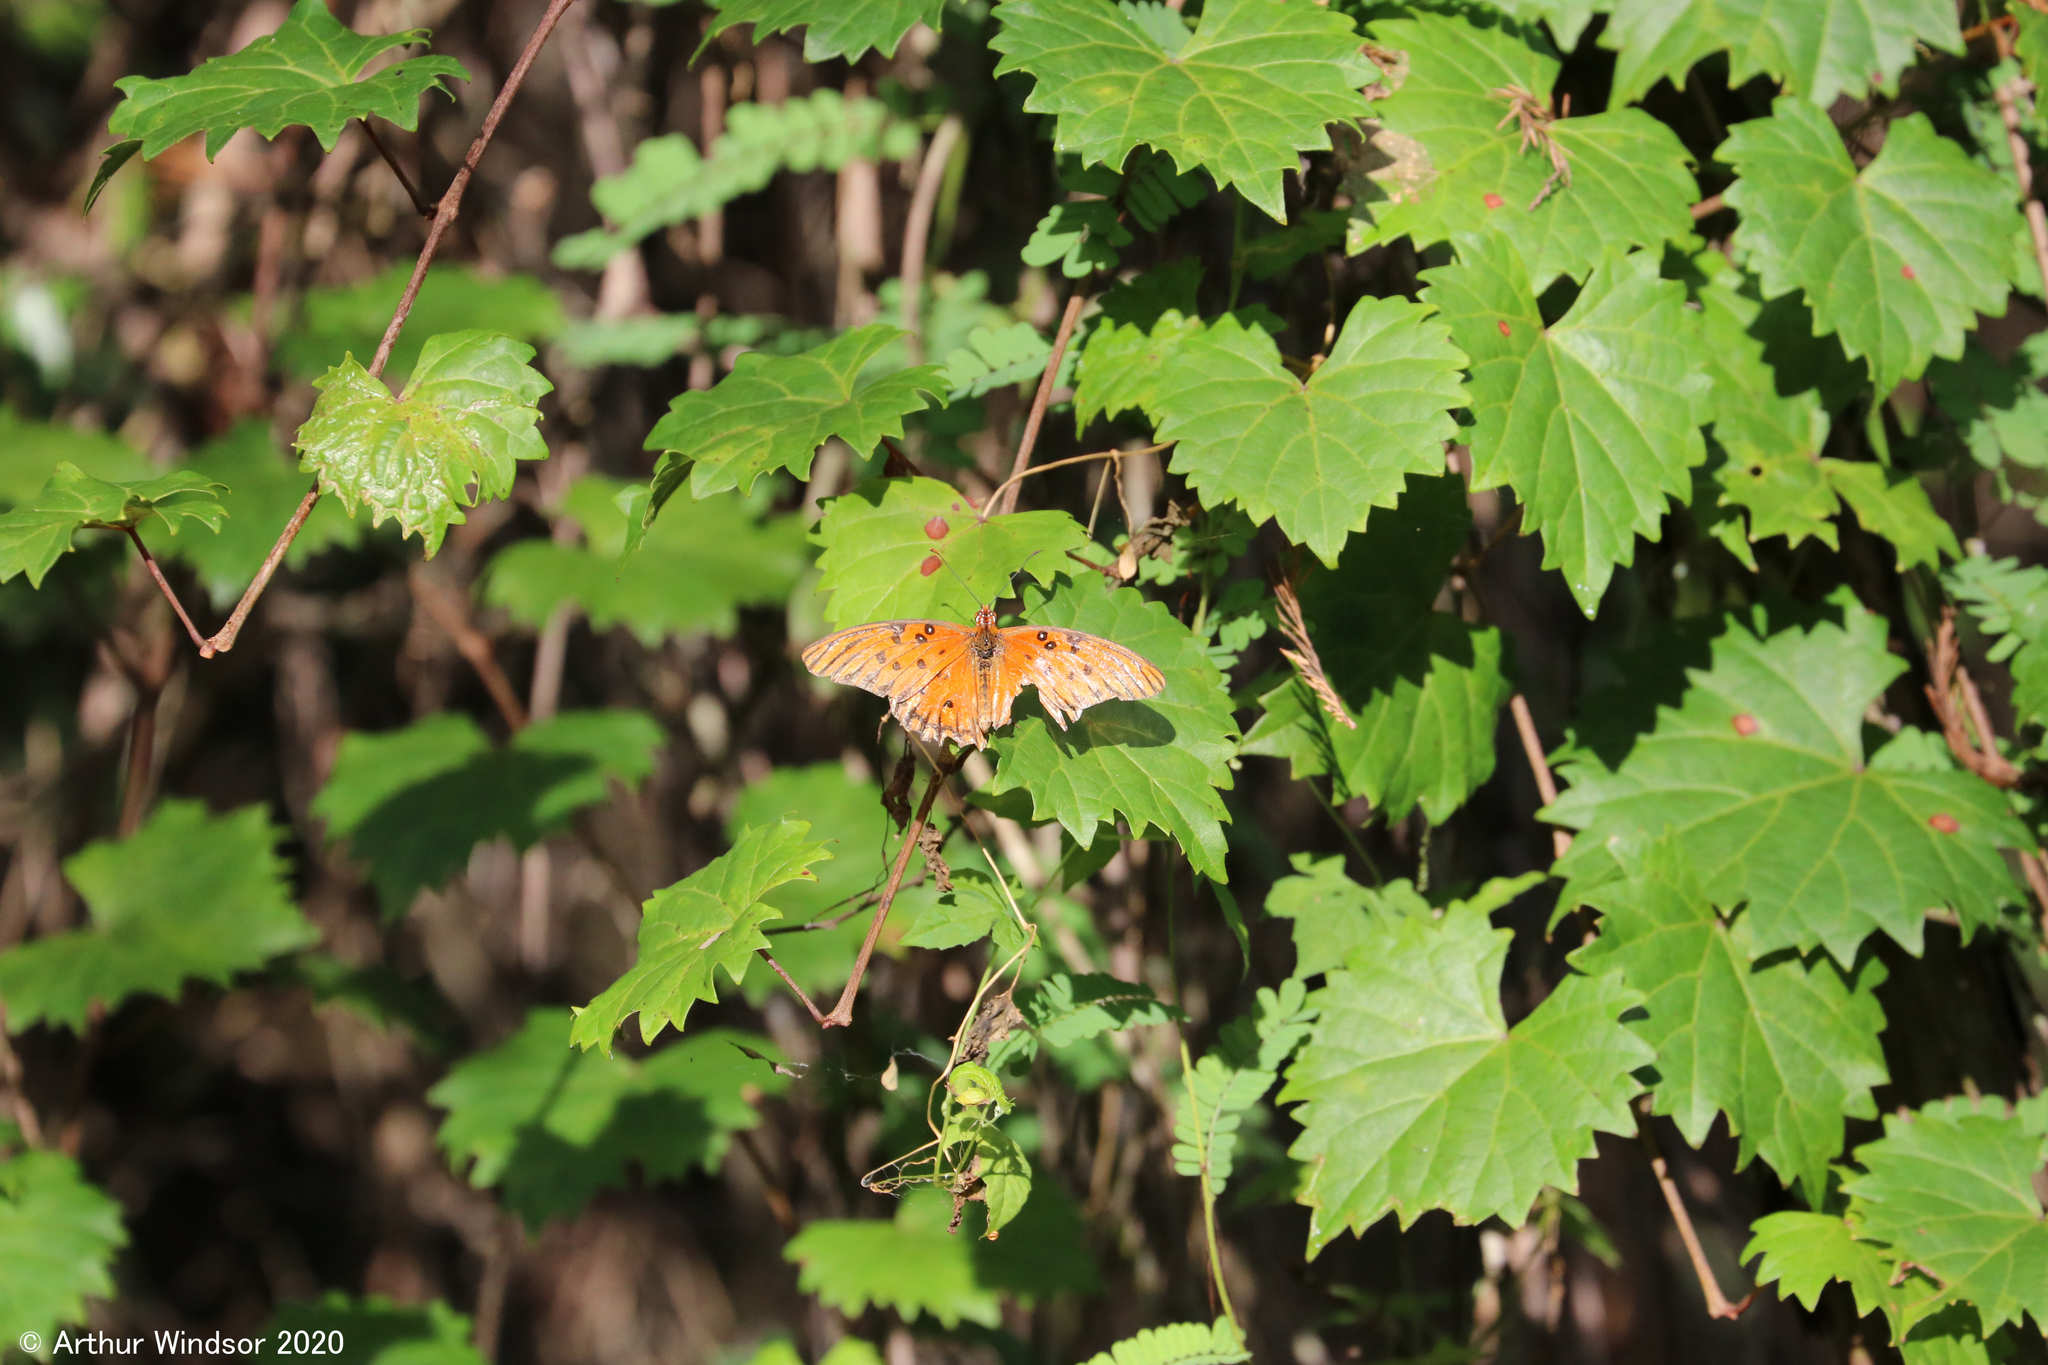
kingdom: Animalia
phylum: Arthropoda
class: Insecta
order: Lepidoptera
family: Nymphalidae
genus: Dione
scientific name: Dione vanillae
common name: Gulf fritillary
